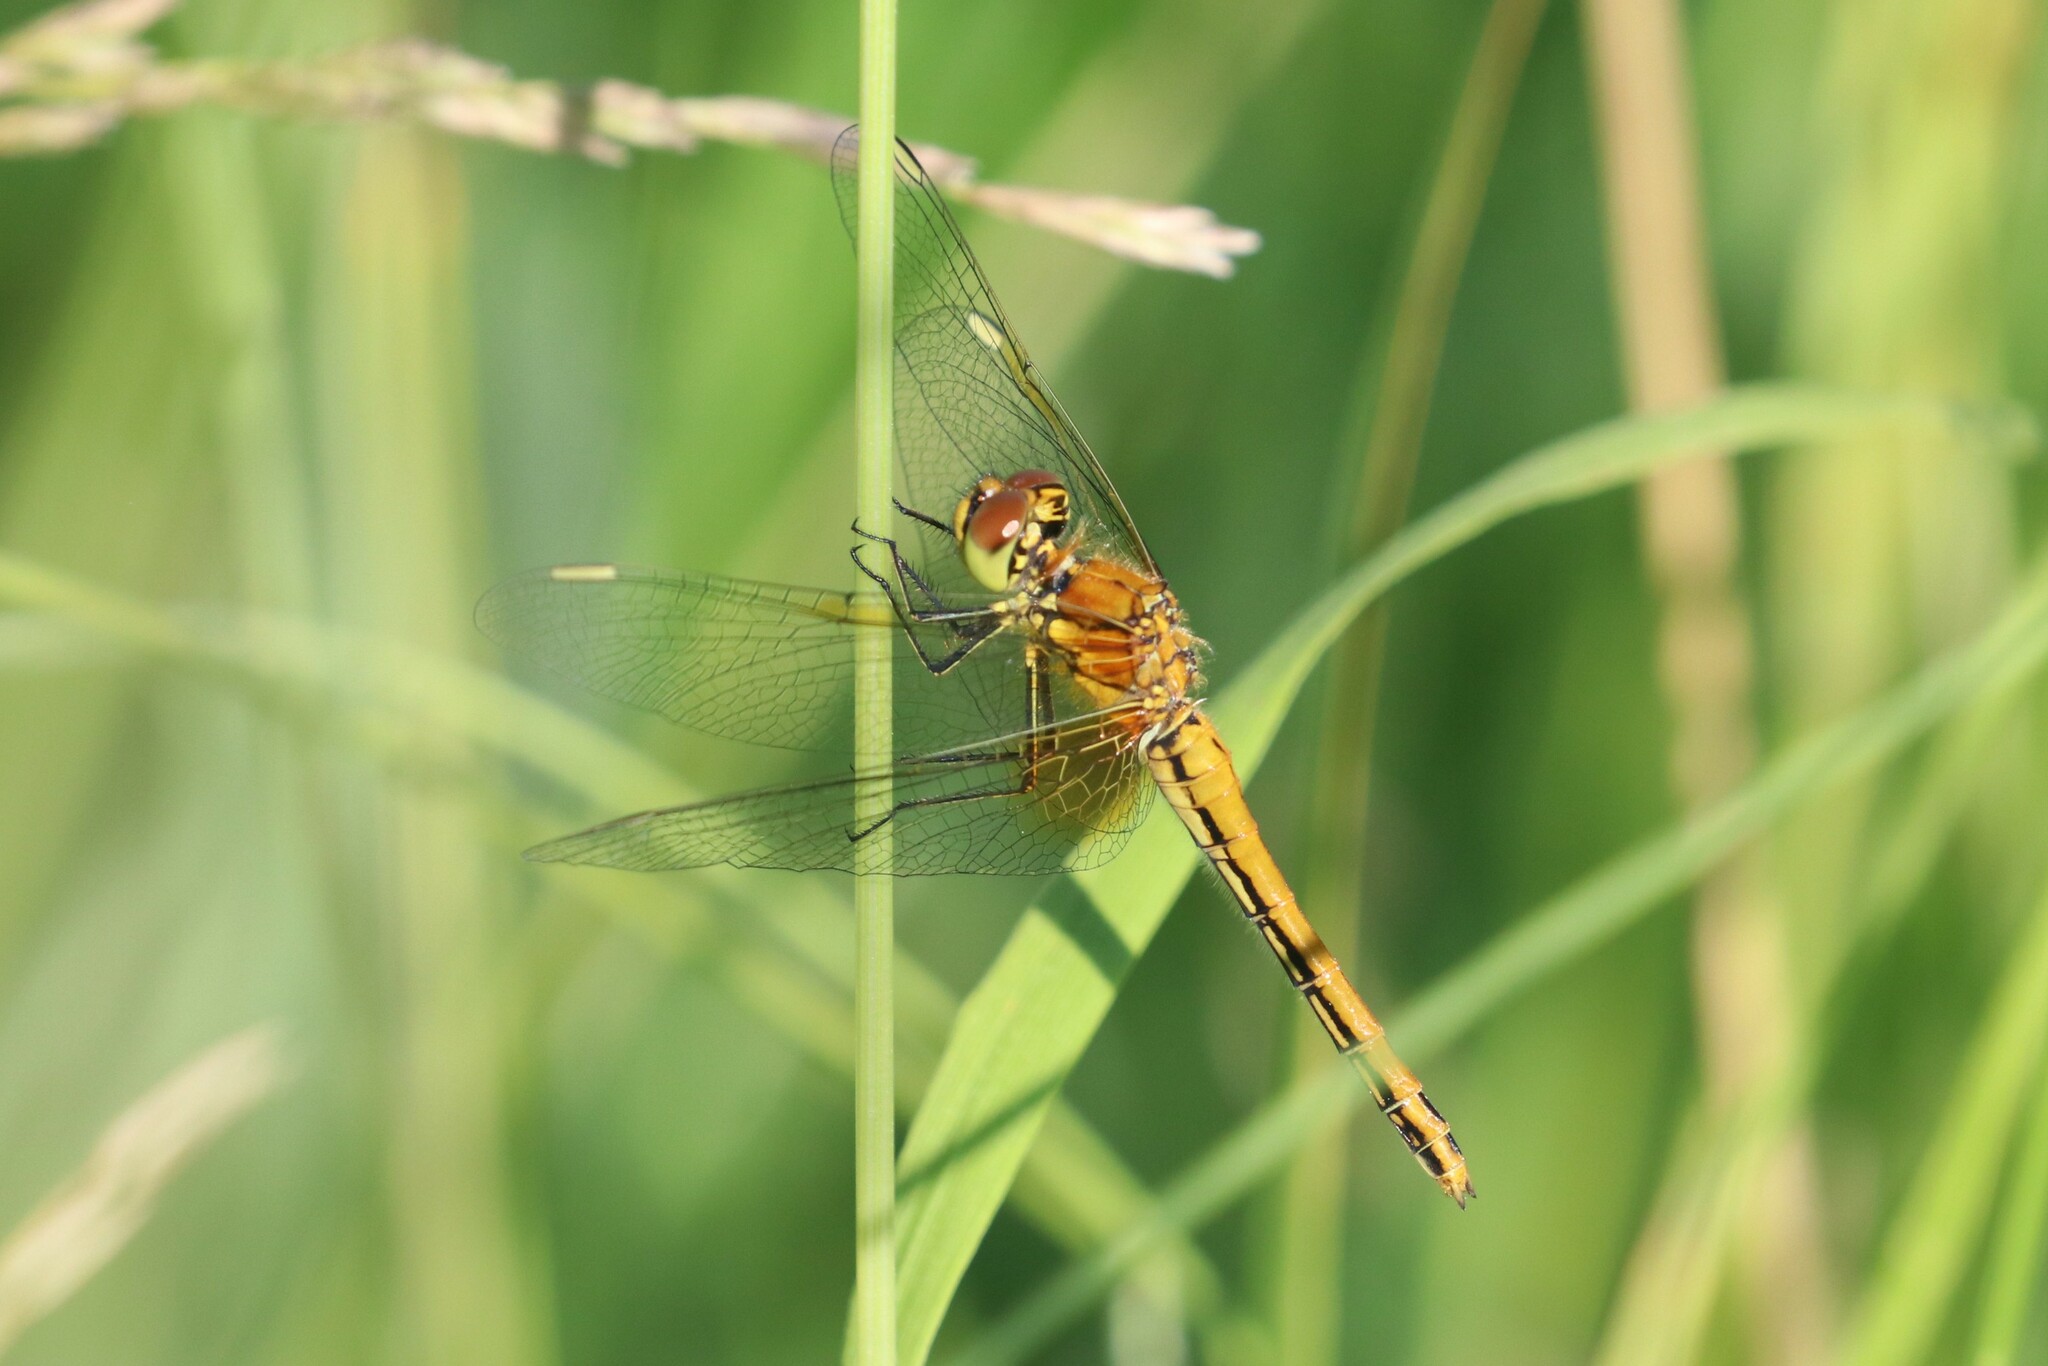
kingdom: Animalia
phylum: Arthropoda
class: Insecta
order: Odonata
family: Libellulidae
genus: Sympetrum
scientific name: Sympetrum flaveolum
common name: Yellow-winged darter
